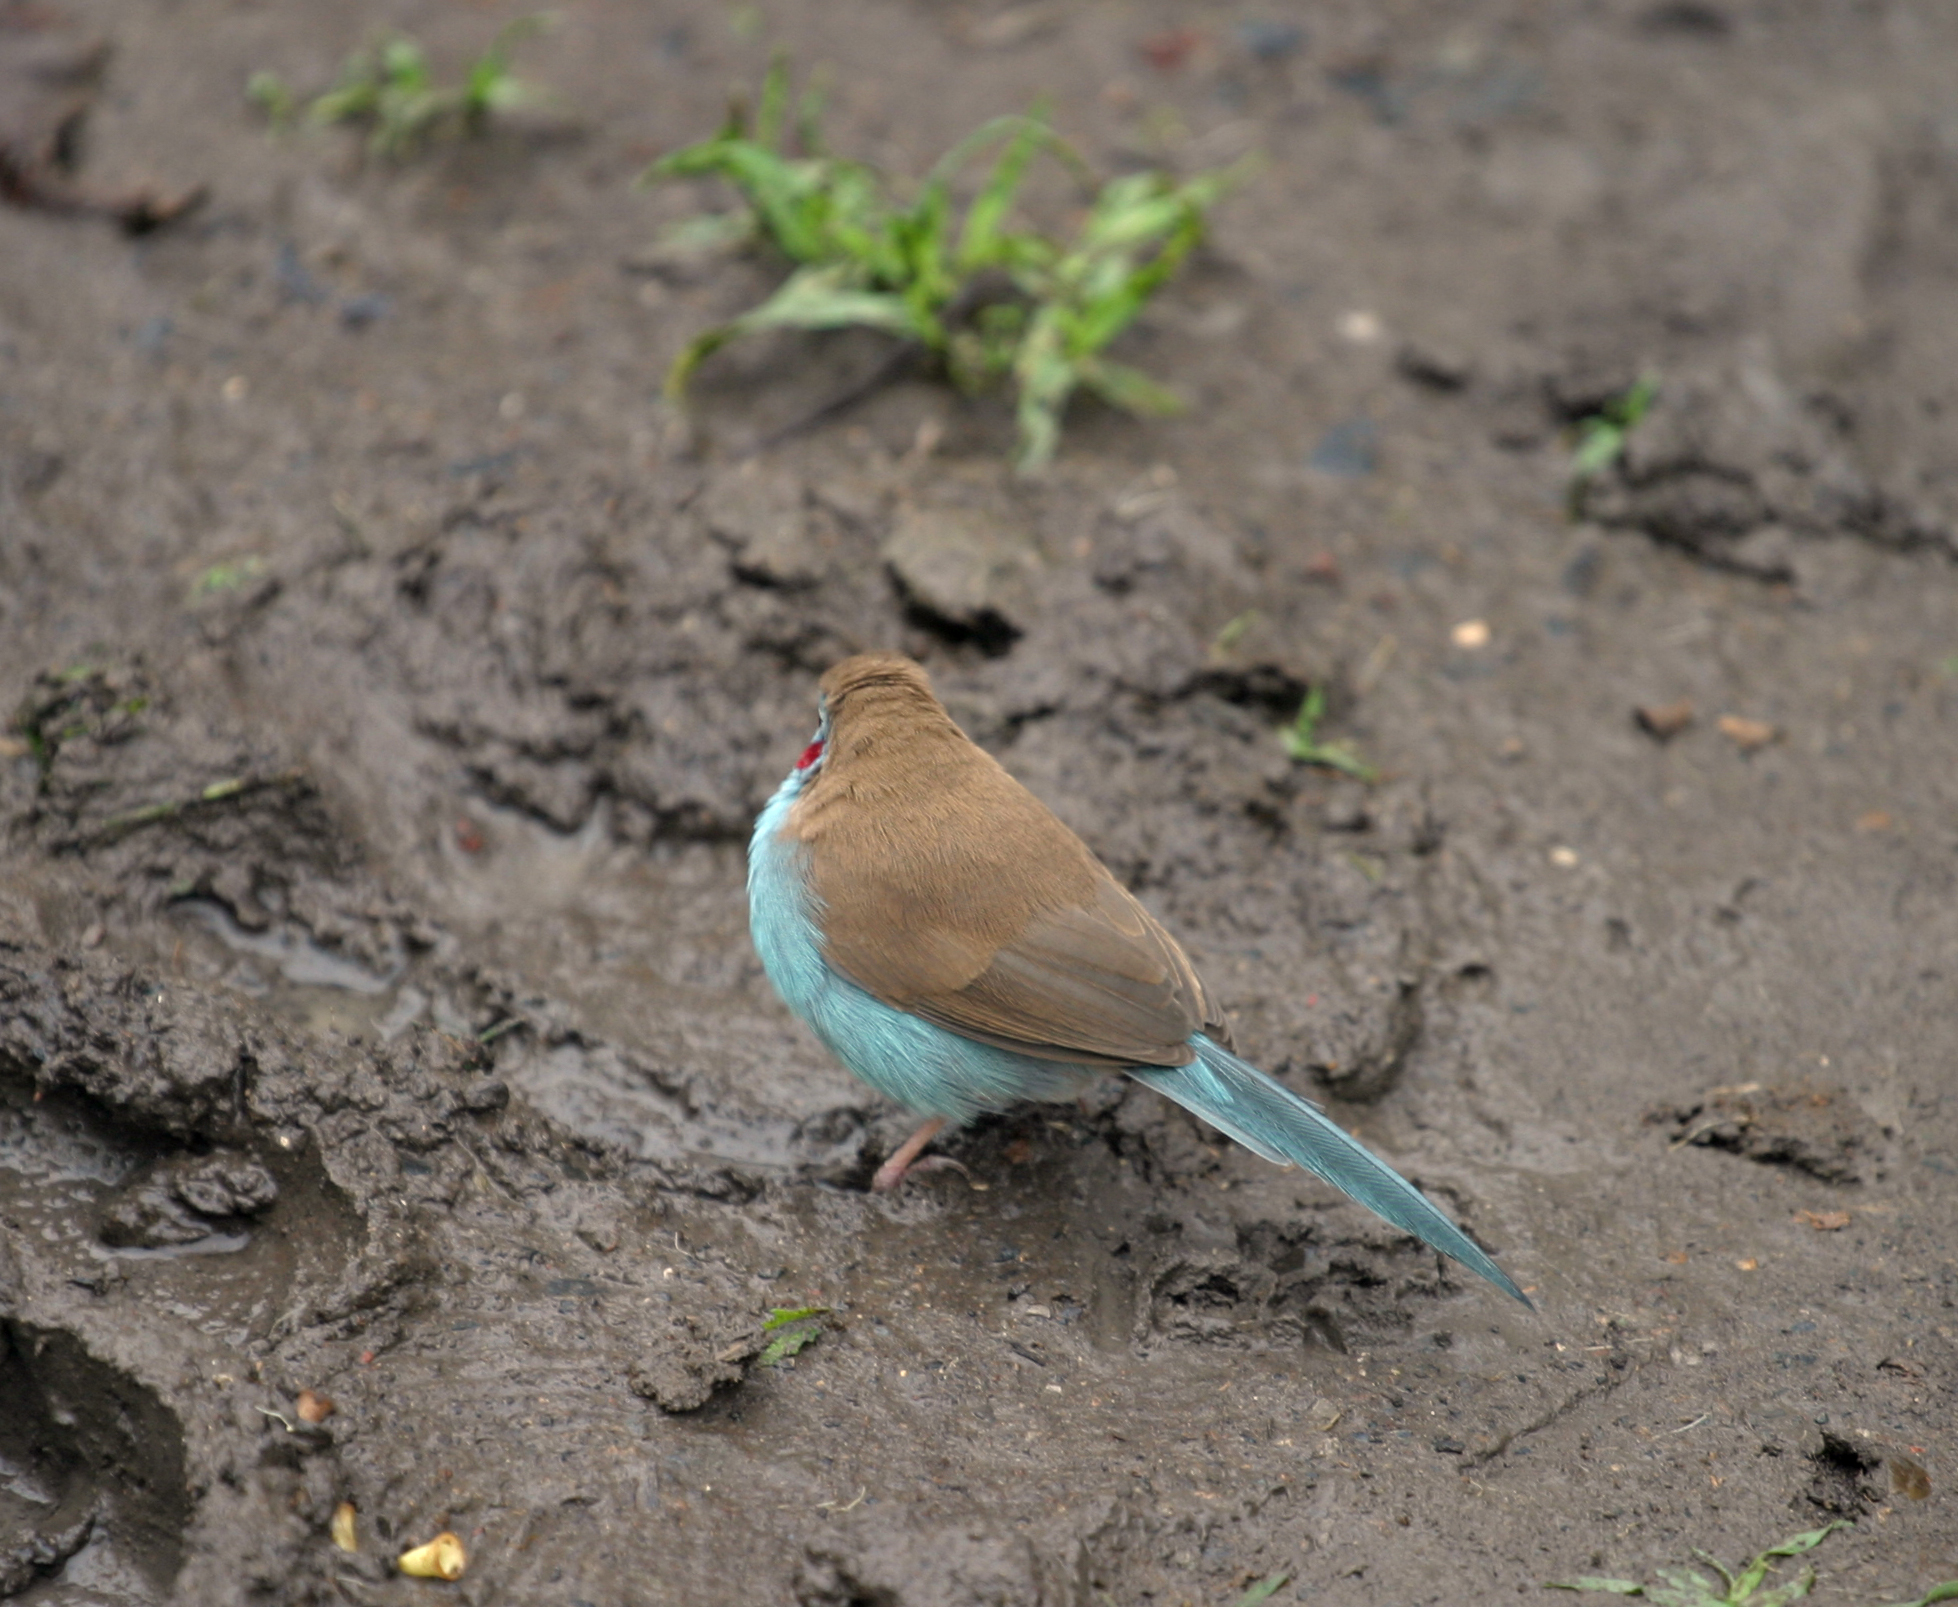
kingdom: Animalia
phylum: Chordata
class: Aves
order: Passeriformes
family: Estrildidae
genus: Uraeginthus
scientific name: Uraeginthus bengalus
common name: Red-cheeked cordon-bleu
